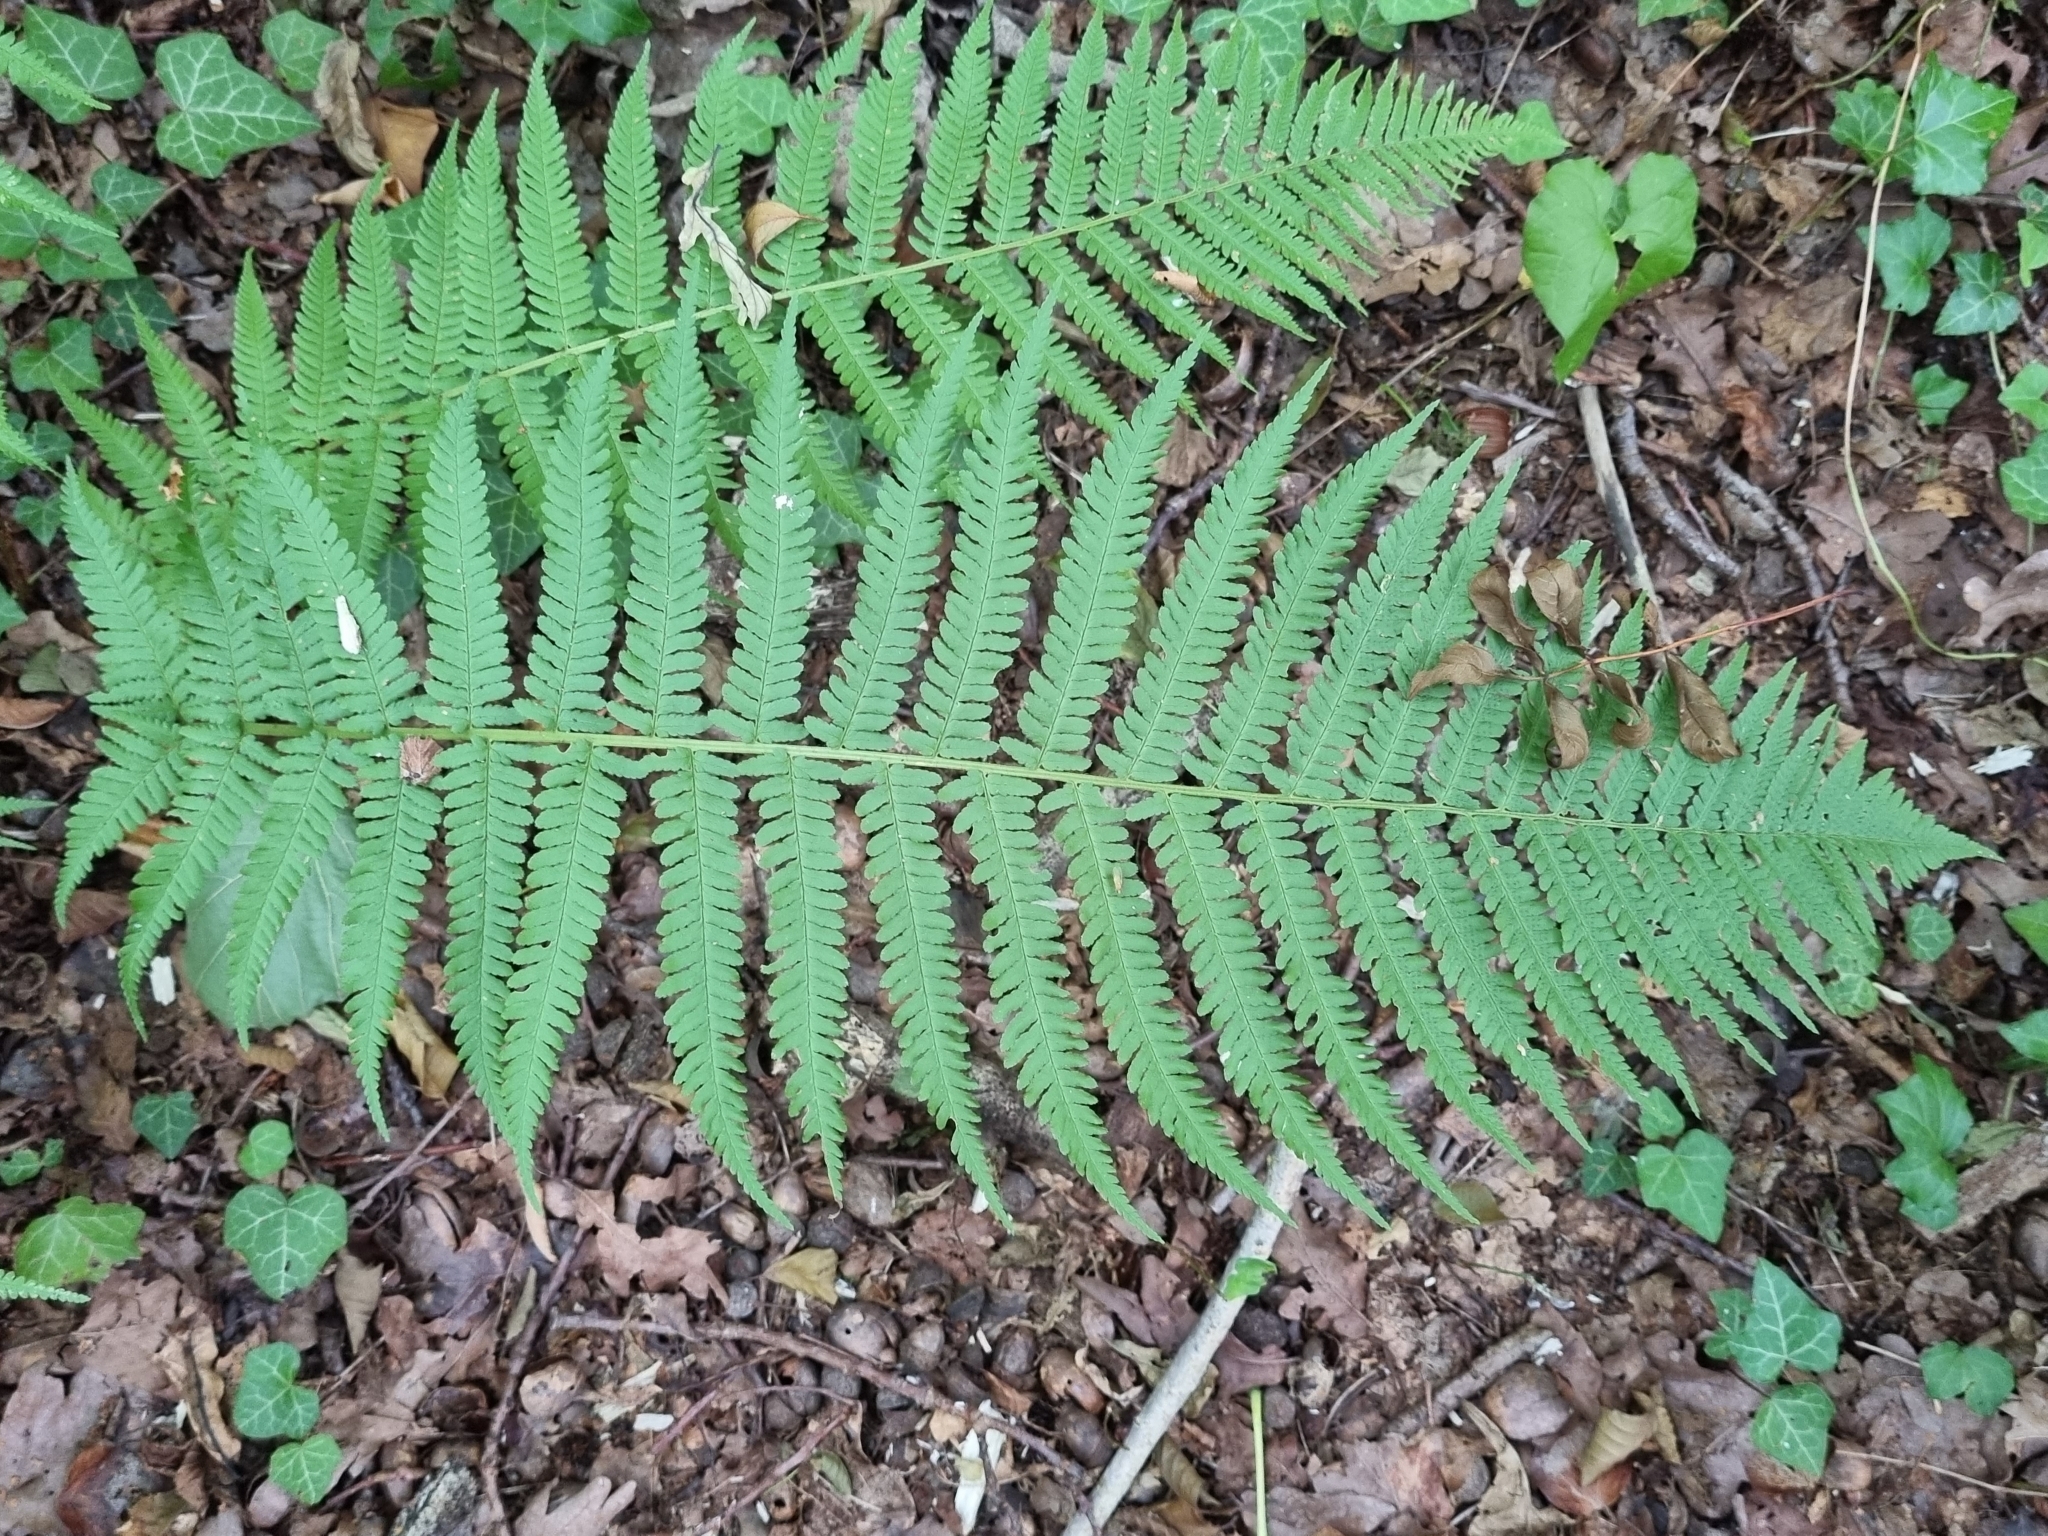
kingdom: Plantae
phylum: Tracheophyta
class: Polypodiopsida
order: Polypodiales
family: Dryopteridaceae
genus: Dryopteris
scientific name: Dryopteris filix-mas
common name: Male fern
